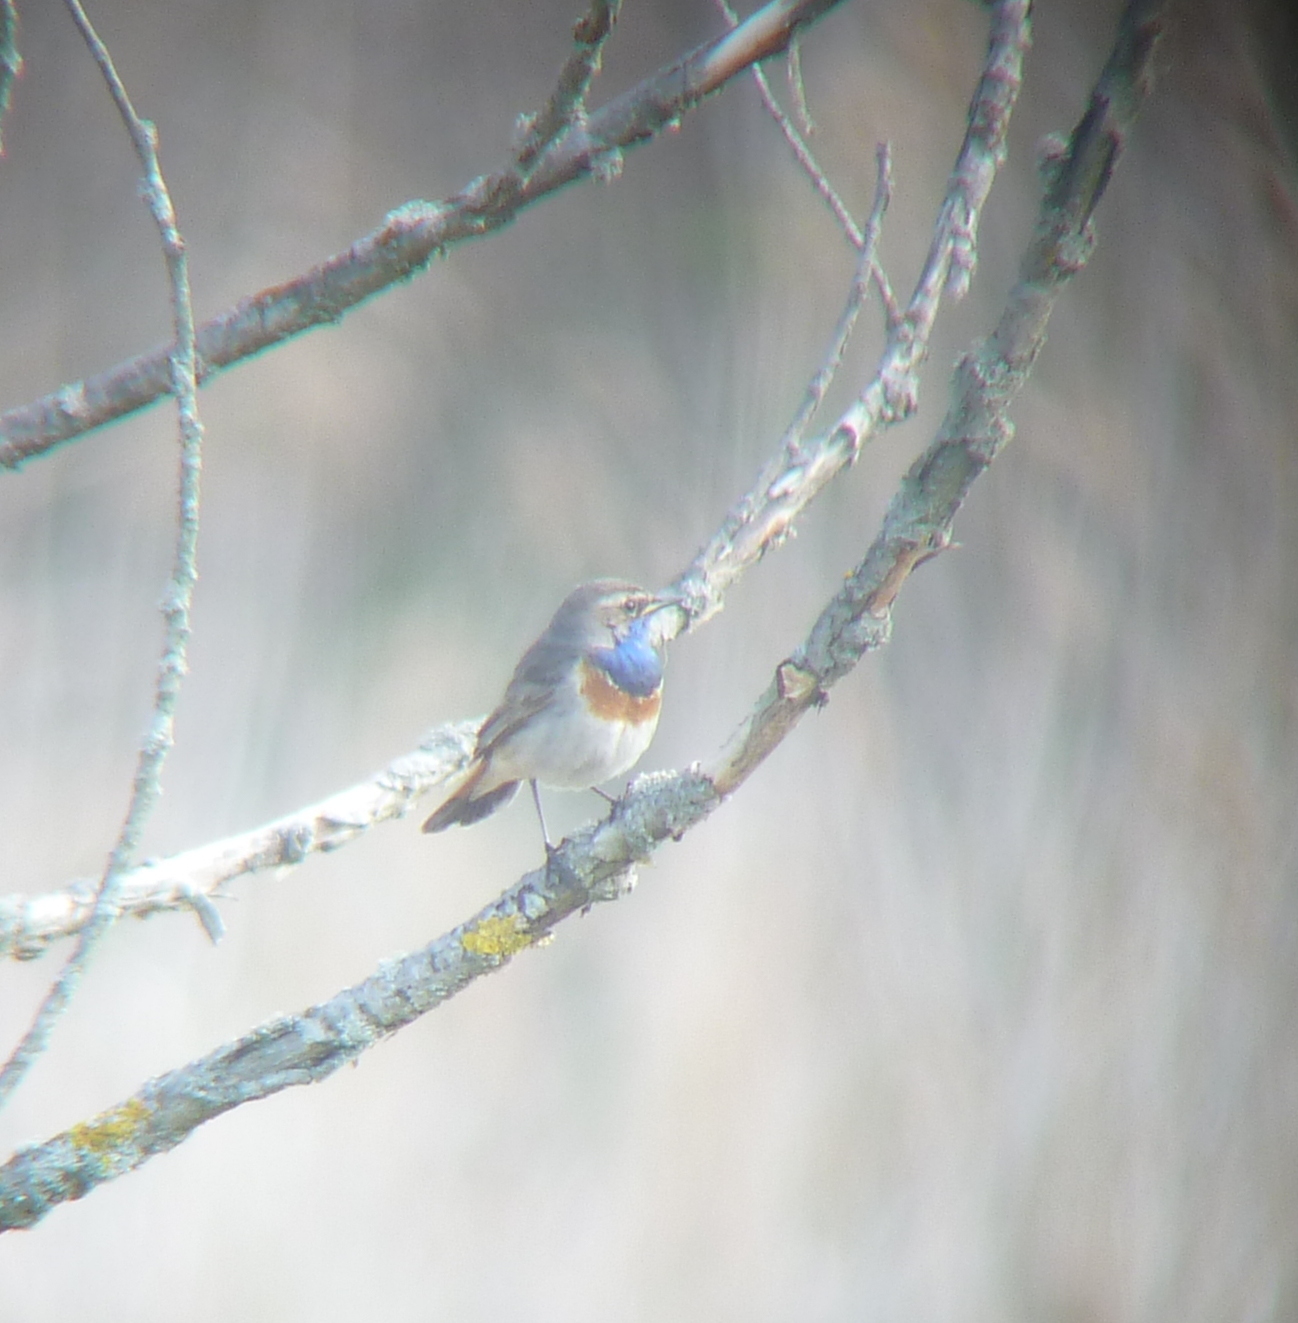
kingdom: Animalia
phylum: Chordata
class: Aves
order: Passeriformes
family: Muscicapidae
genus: Luscinia
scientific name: Luscinia svecica
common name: Bluethroat
